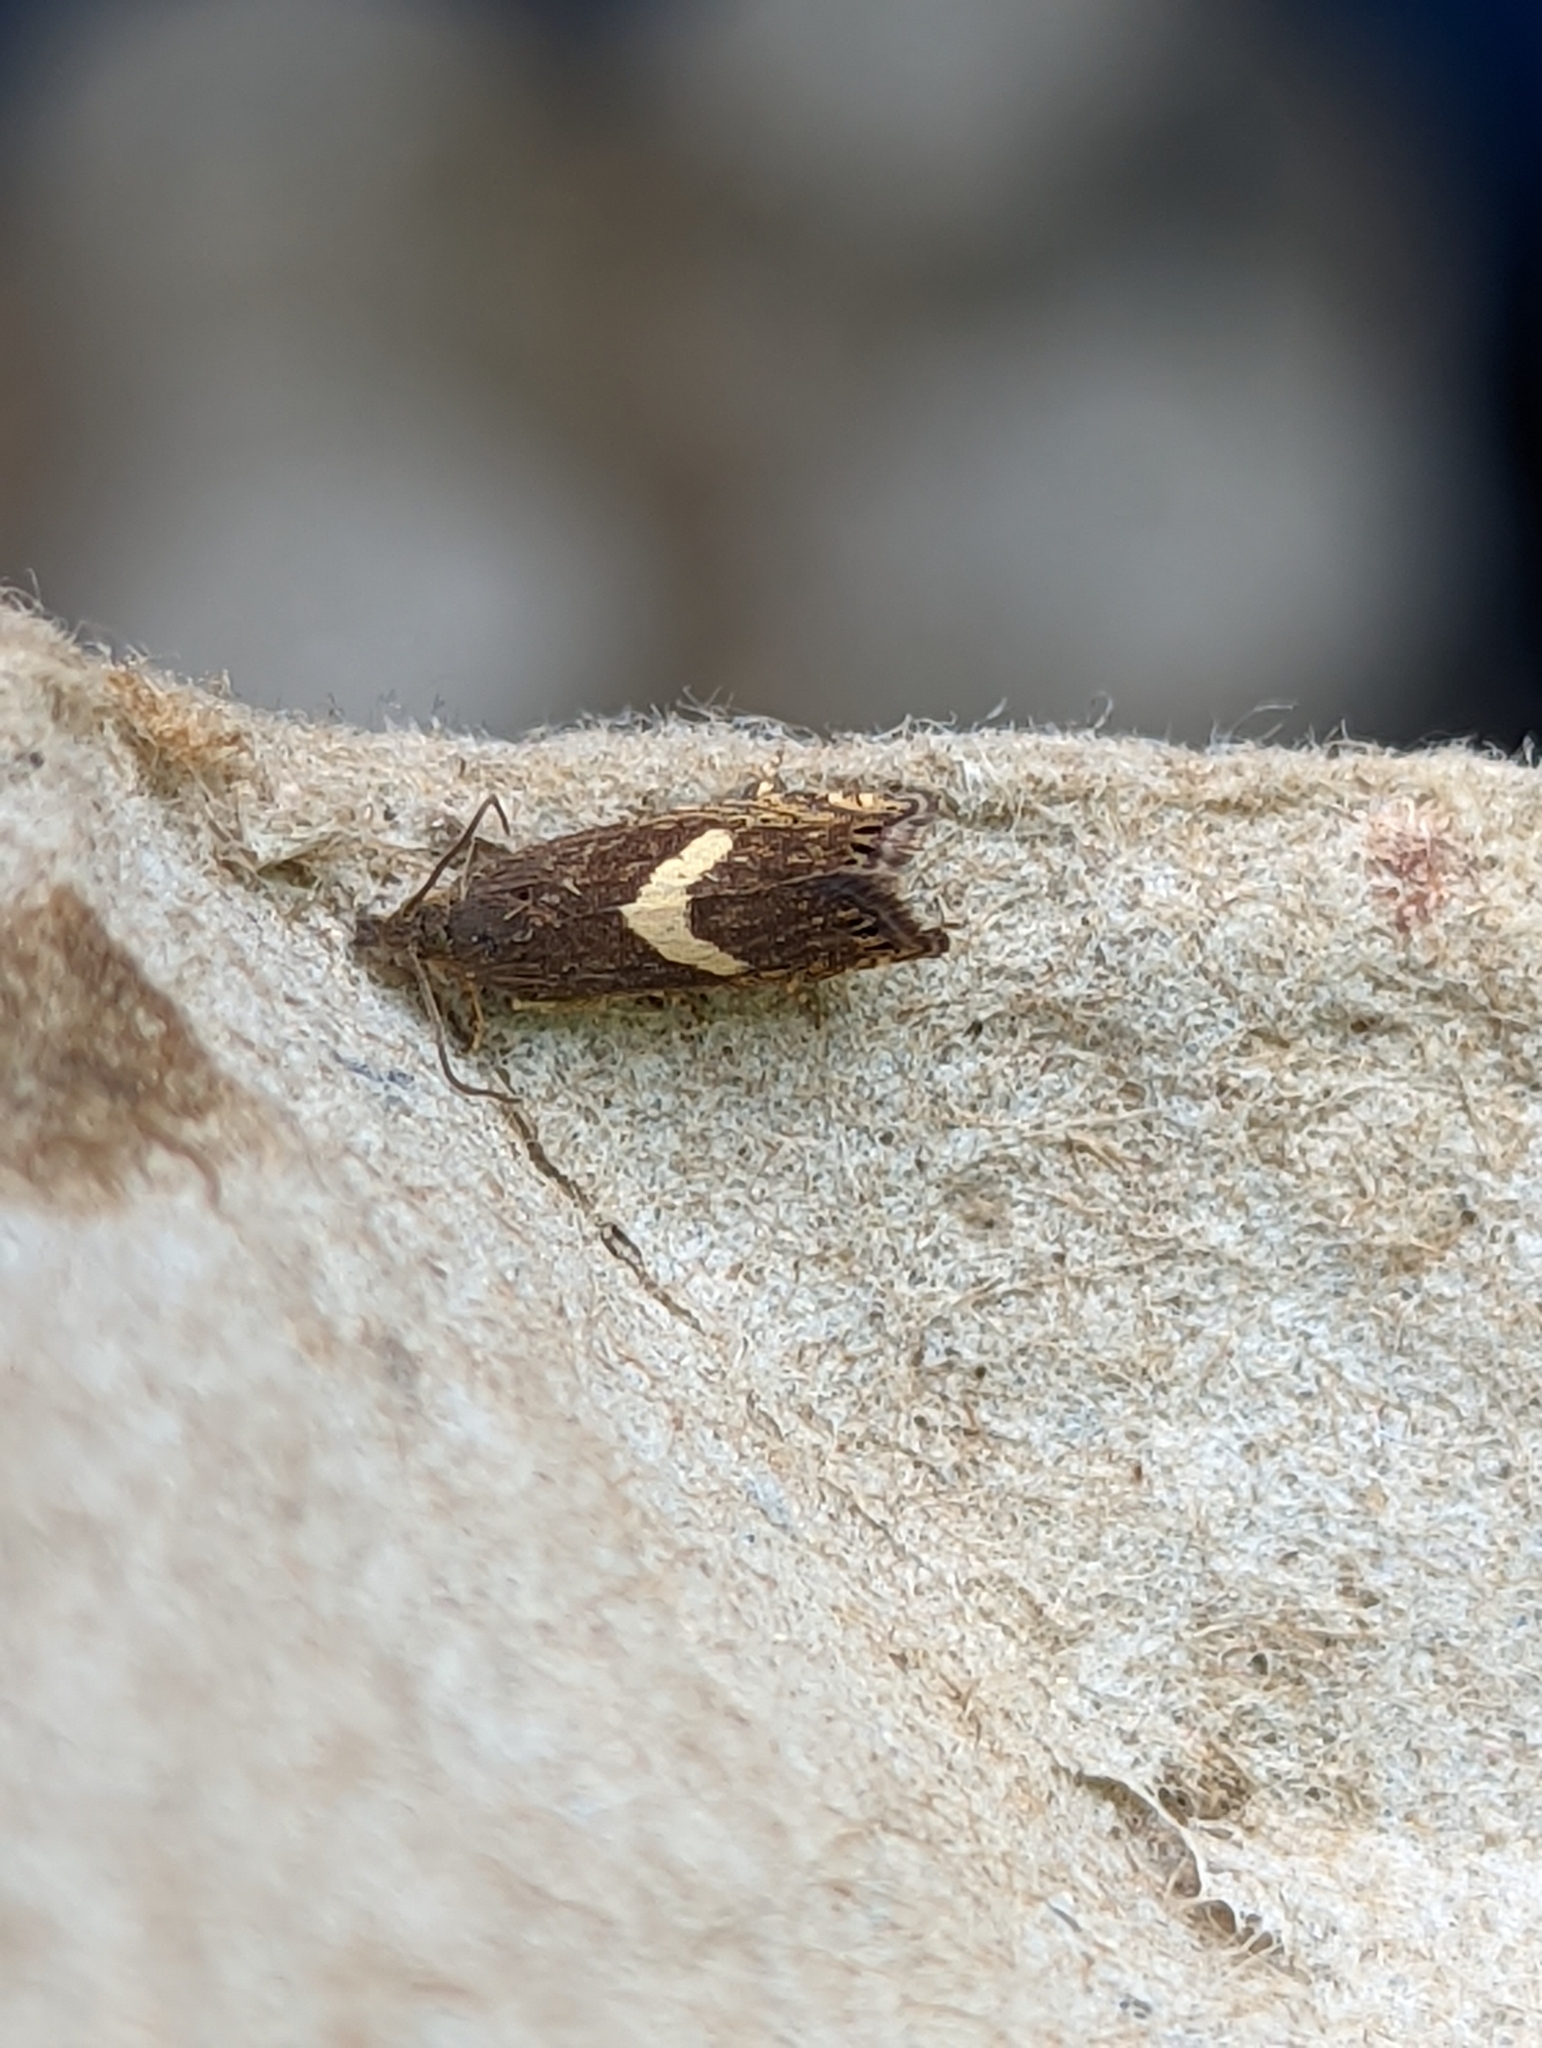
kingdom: Animalia
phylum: Arthropoda
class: Insecta
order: Lepidoptera
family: Tortricidae
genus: Dichrorampha
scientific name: Dichrorampha petiverella
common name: Common drill
